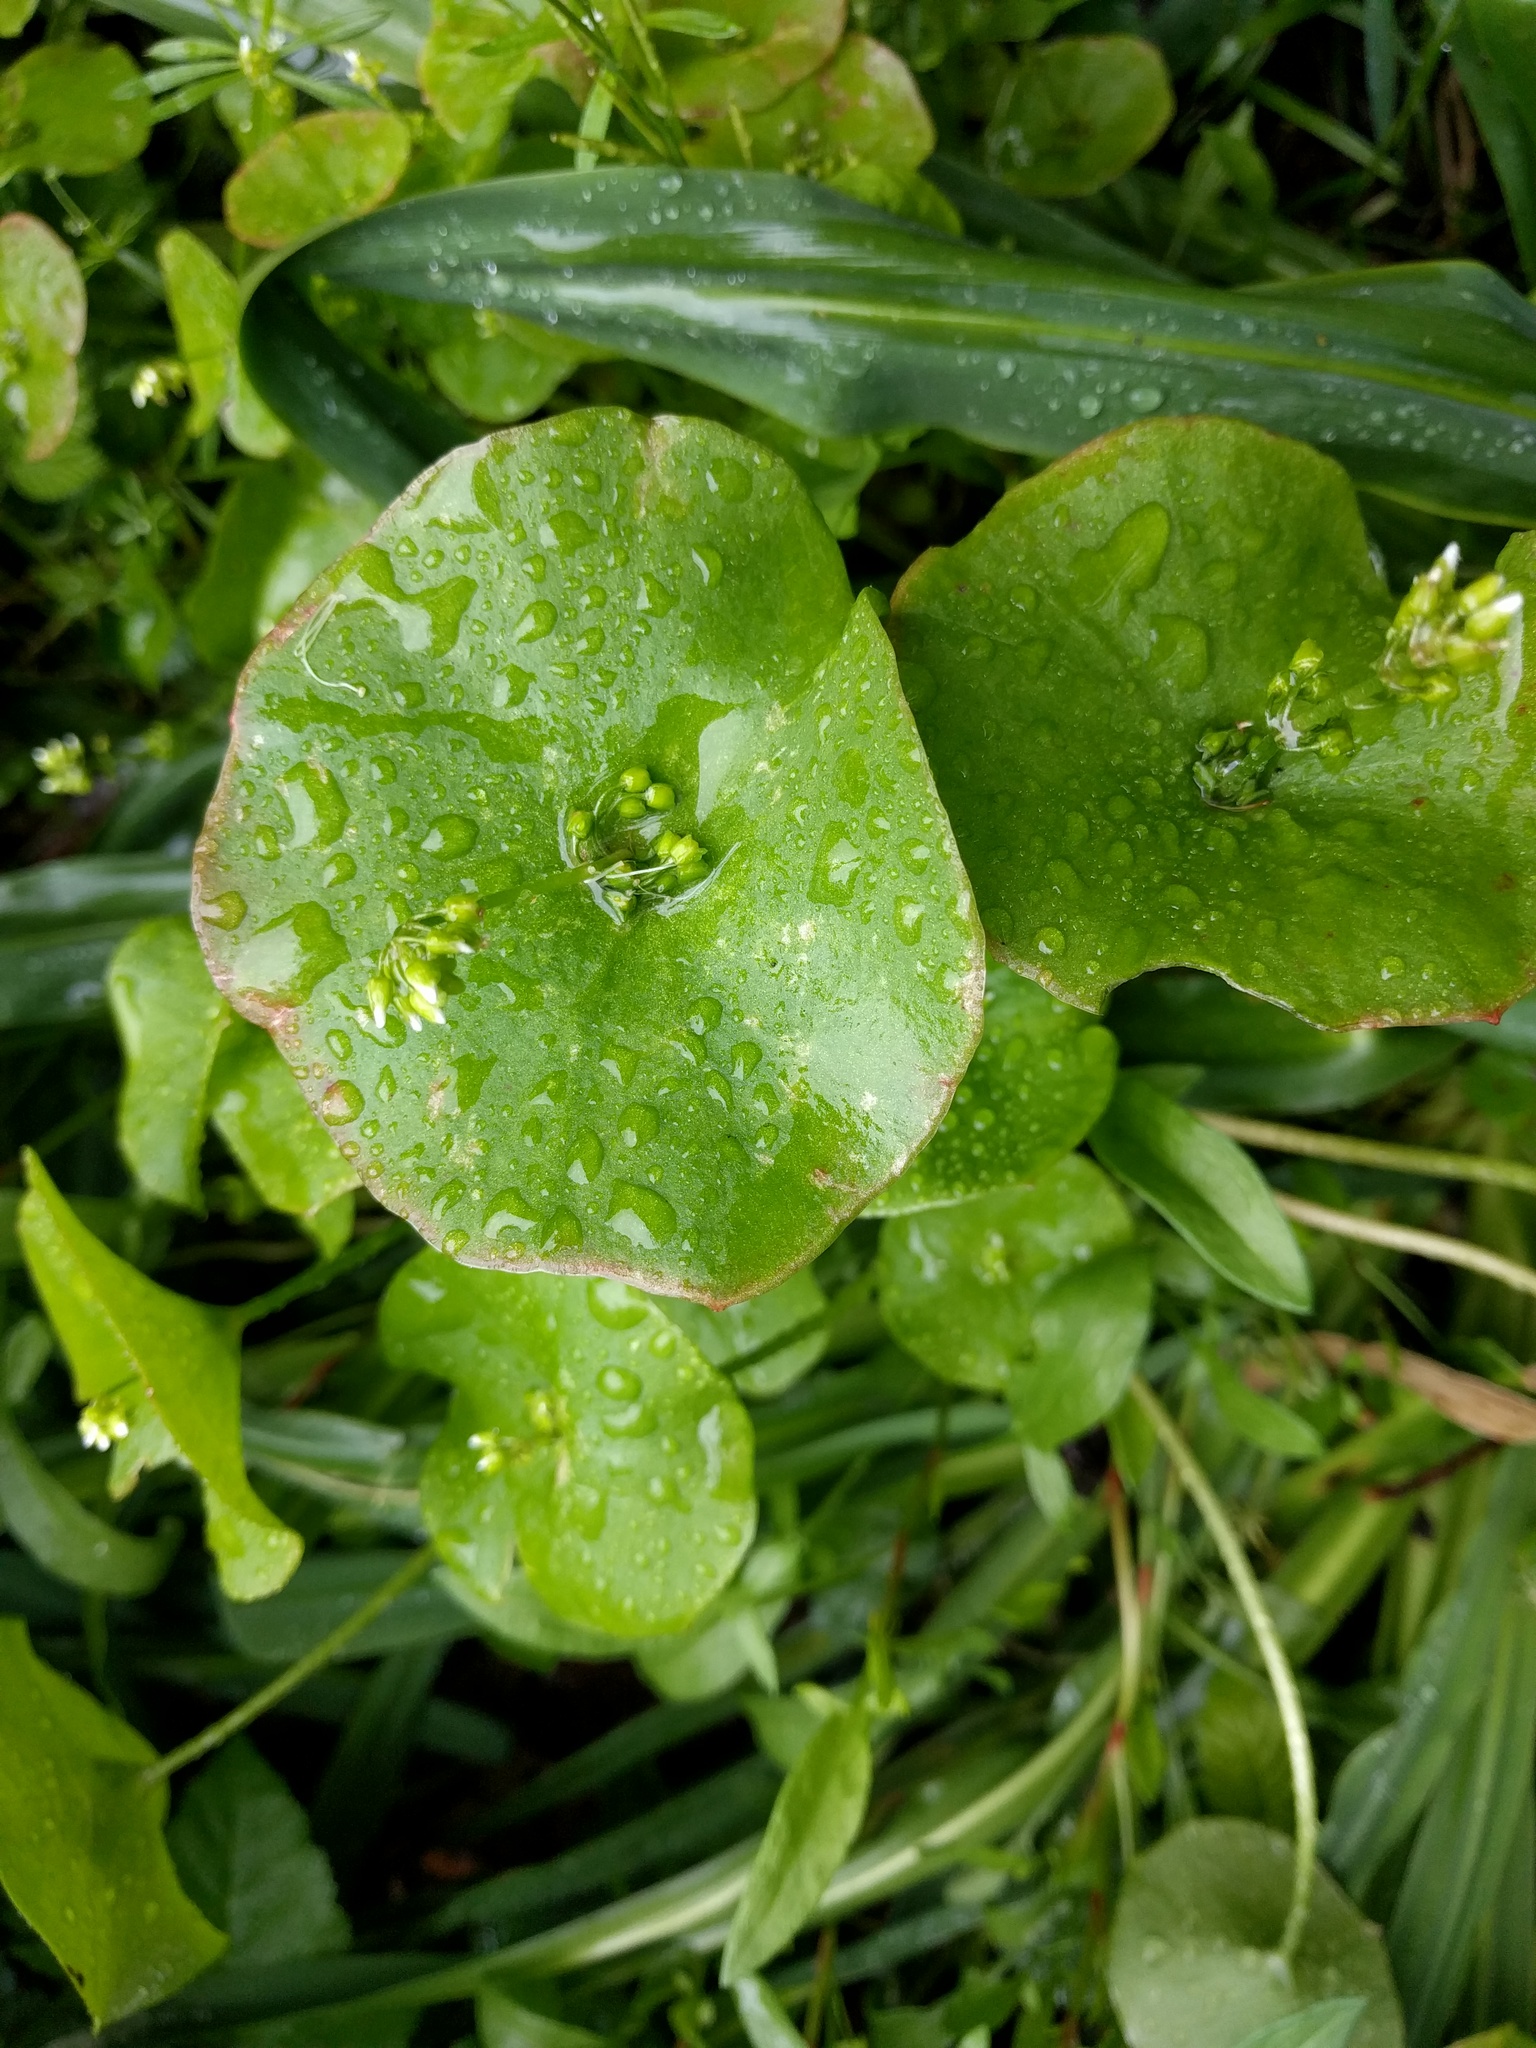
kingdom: Plantae
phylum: Tracheophyta
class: Magnoliopsida
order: Caryophyllales
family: Montiaceae
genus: Claytonia
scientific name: Claytonia perfoliata
